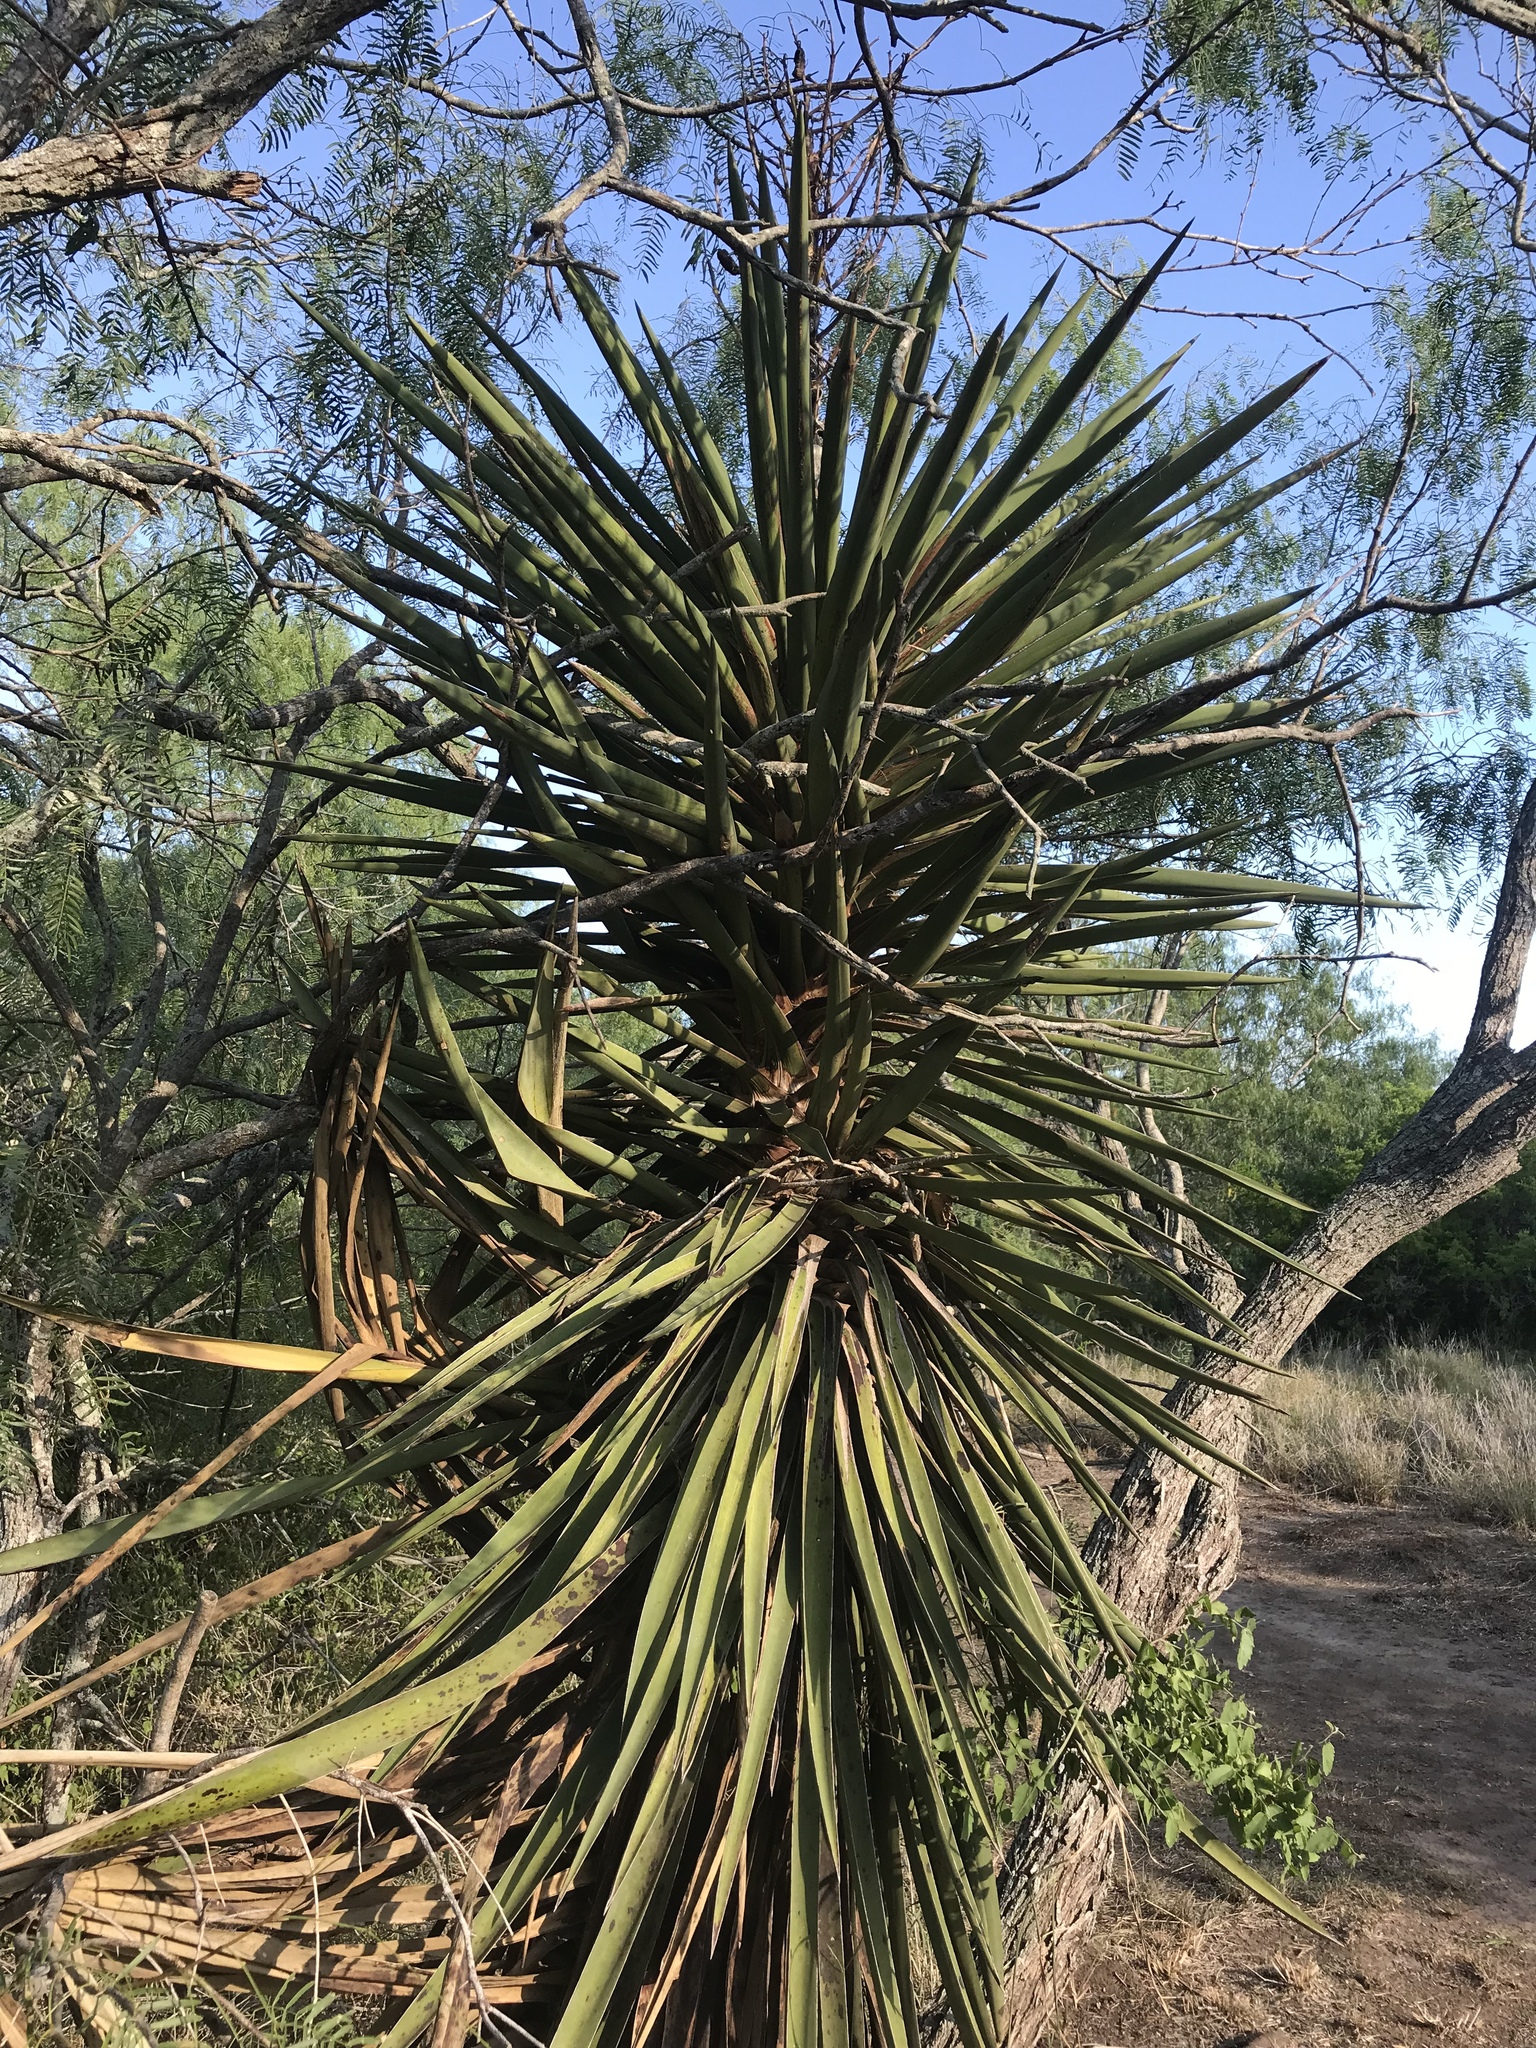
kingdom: Plantae
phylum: Tracheophyta
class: Liliopsida
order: Asparagales
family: Asparagaceae
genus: Yucca
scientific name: Yucca treculiana
